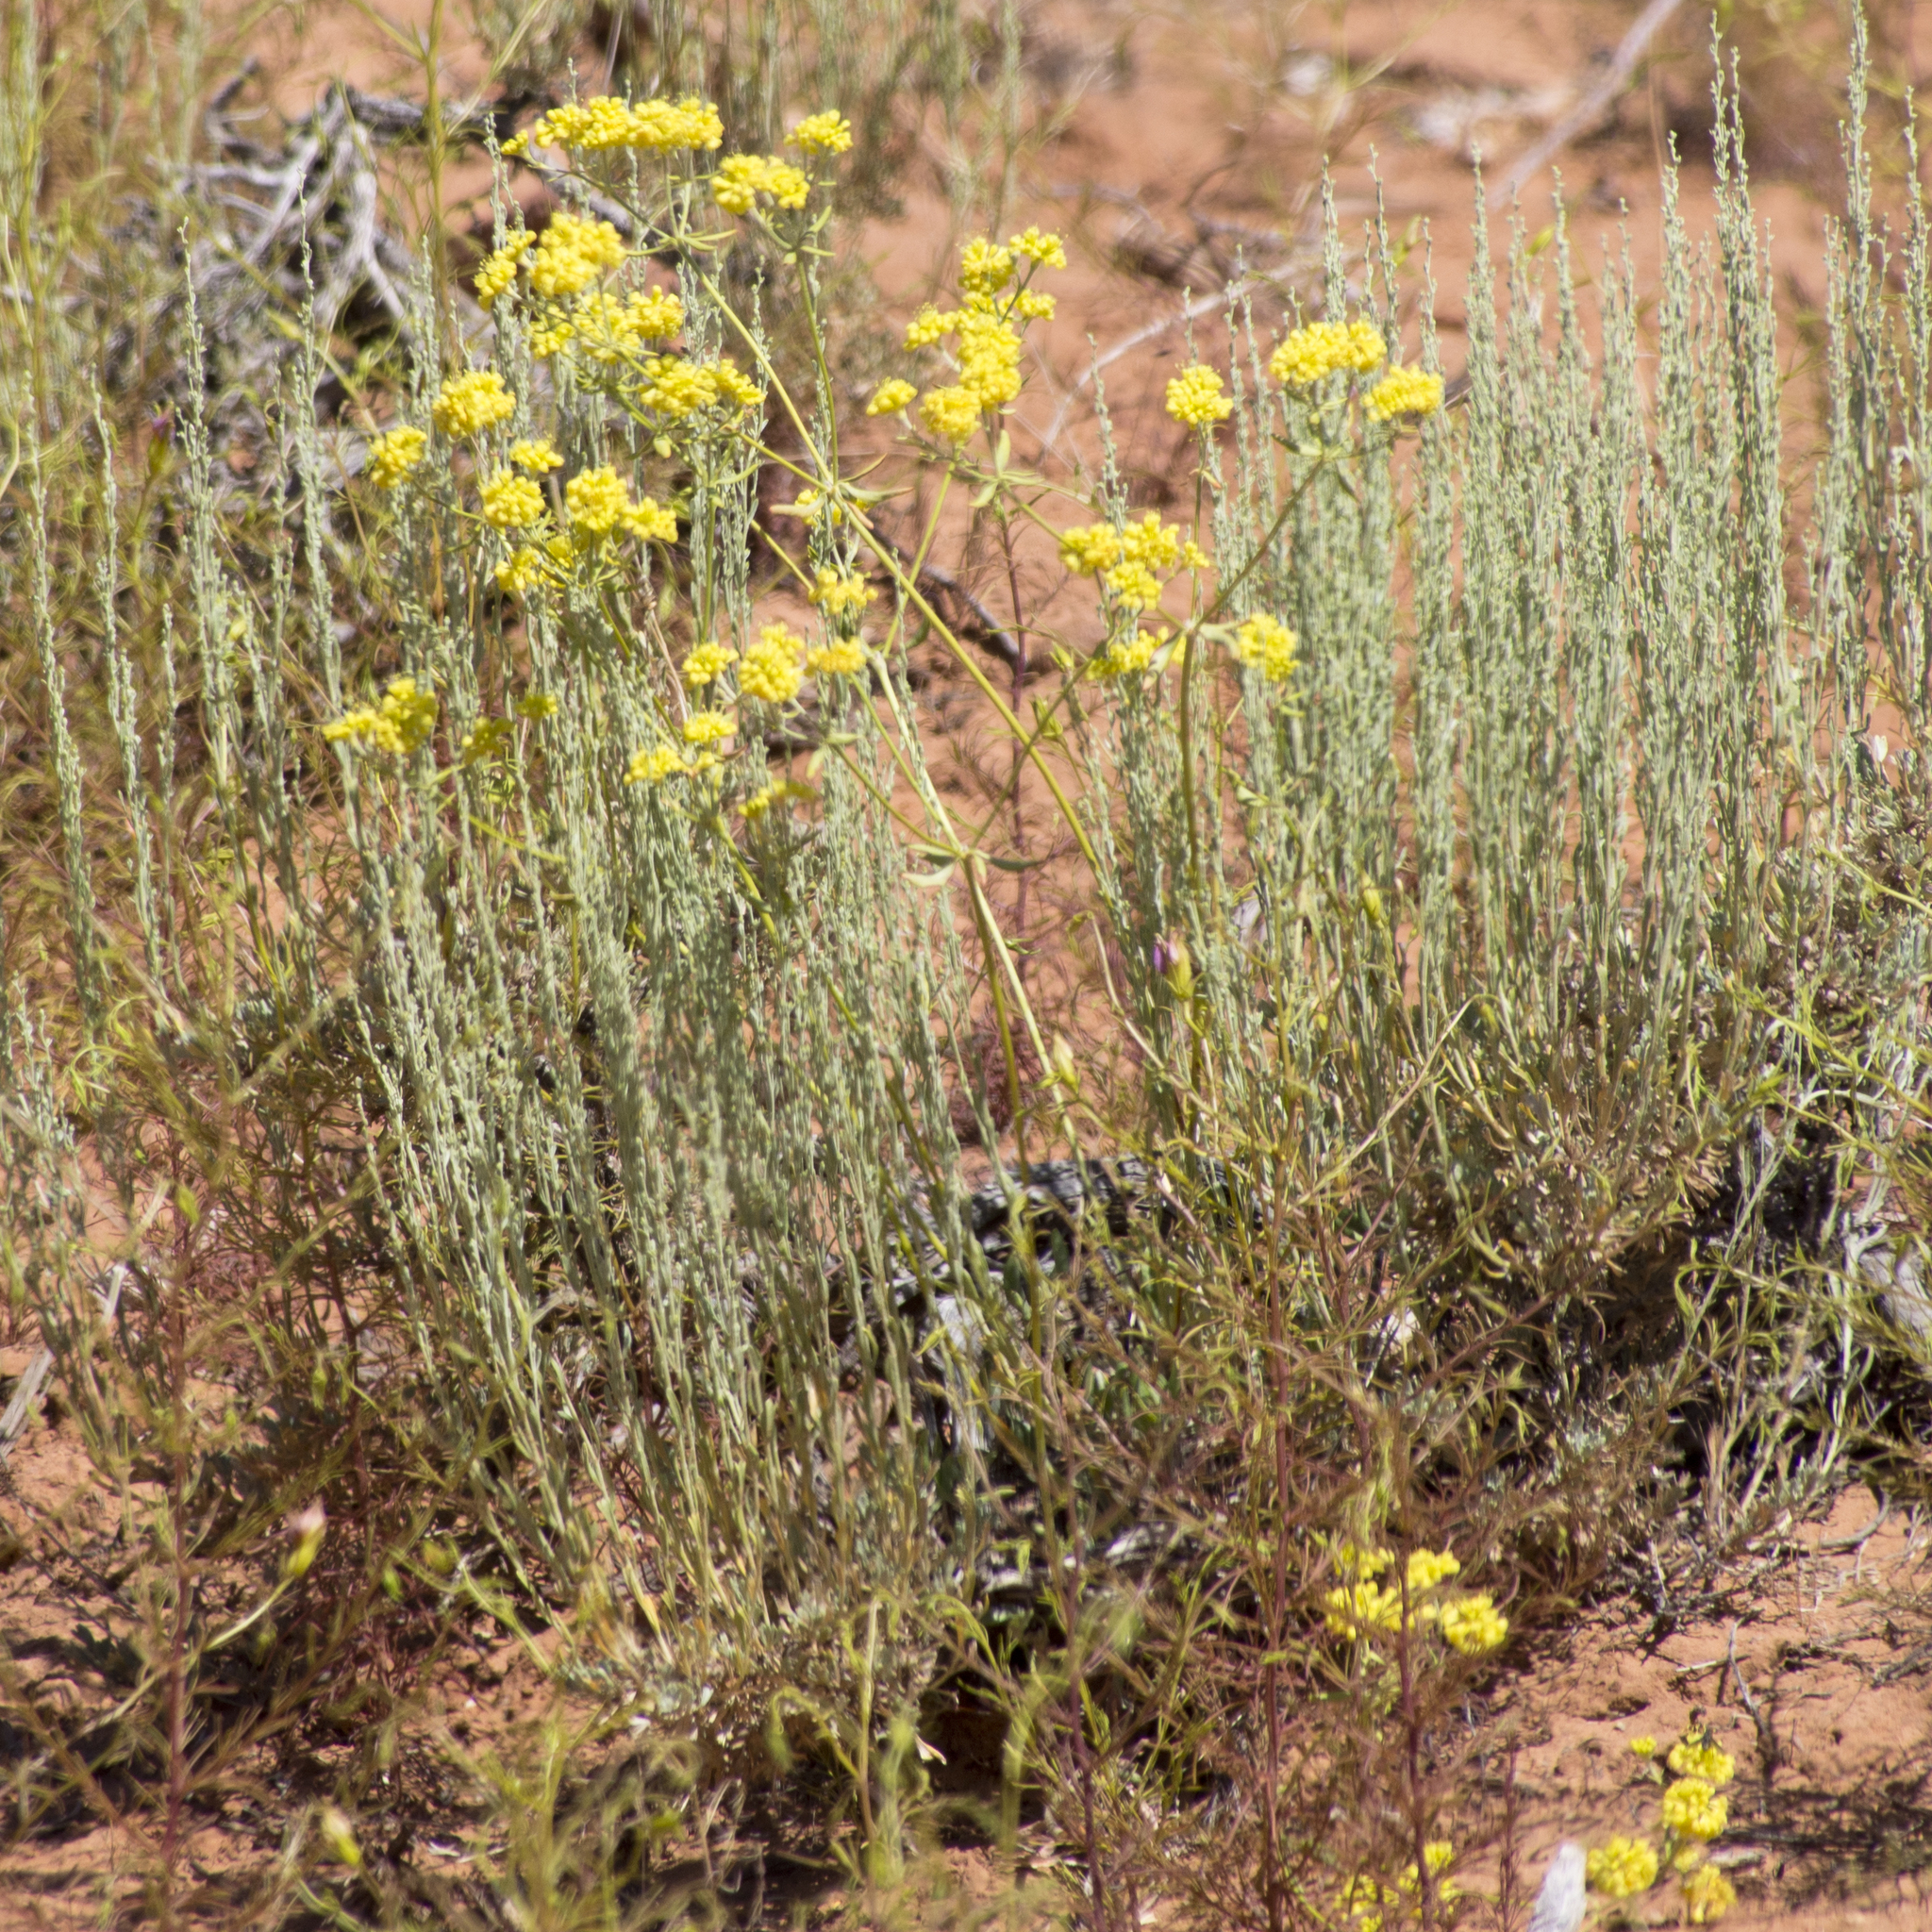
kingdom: Plantae
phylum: Tracheophyta
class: Pinopsida
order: Pinales
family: Pinaceae
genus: Abies
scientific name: Abies concolor
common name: Colorado fir
